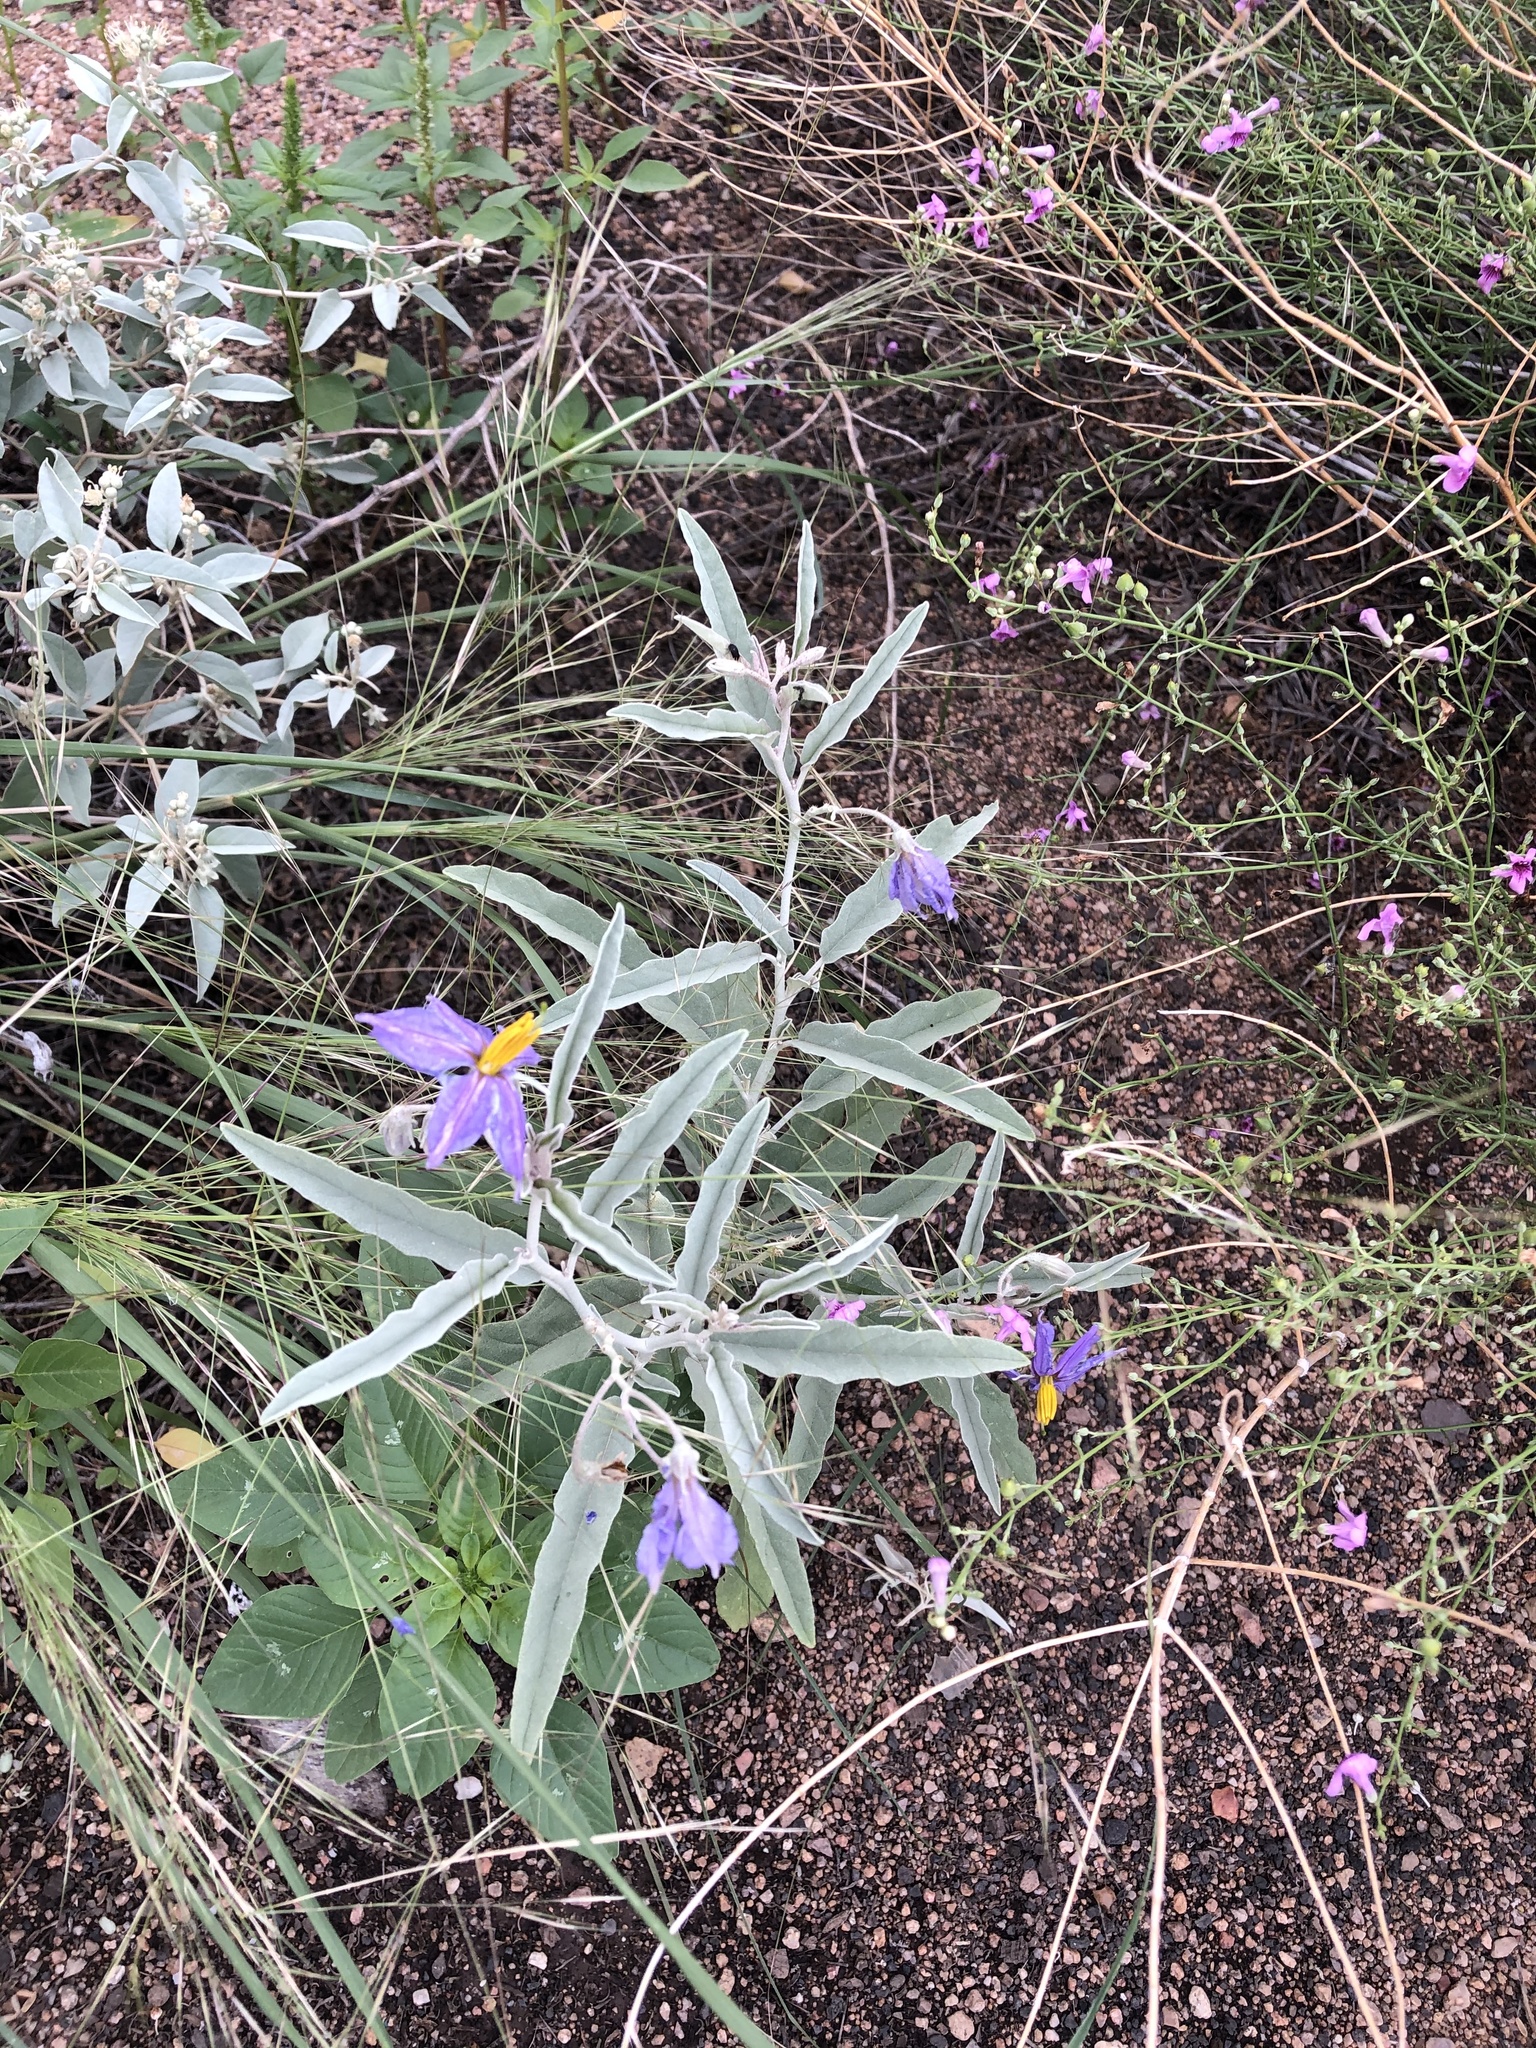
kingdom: Plantae
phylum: Tracheophyta
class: Magnoliopsida
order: Solanales
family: Solanaceae
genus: Solanum
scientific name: Solanum elaeagnifolium
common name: Silverleaf nightshade
